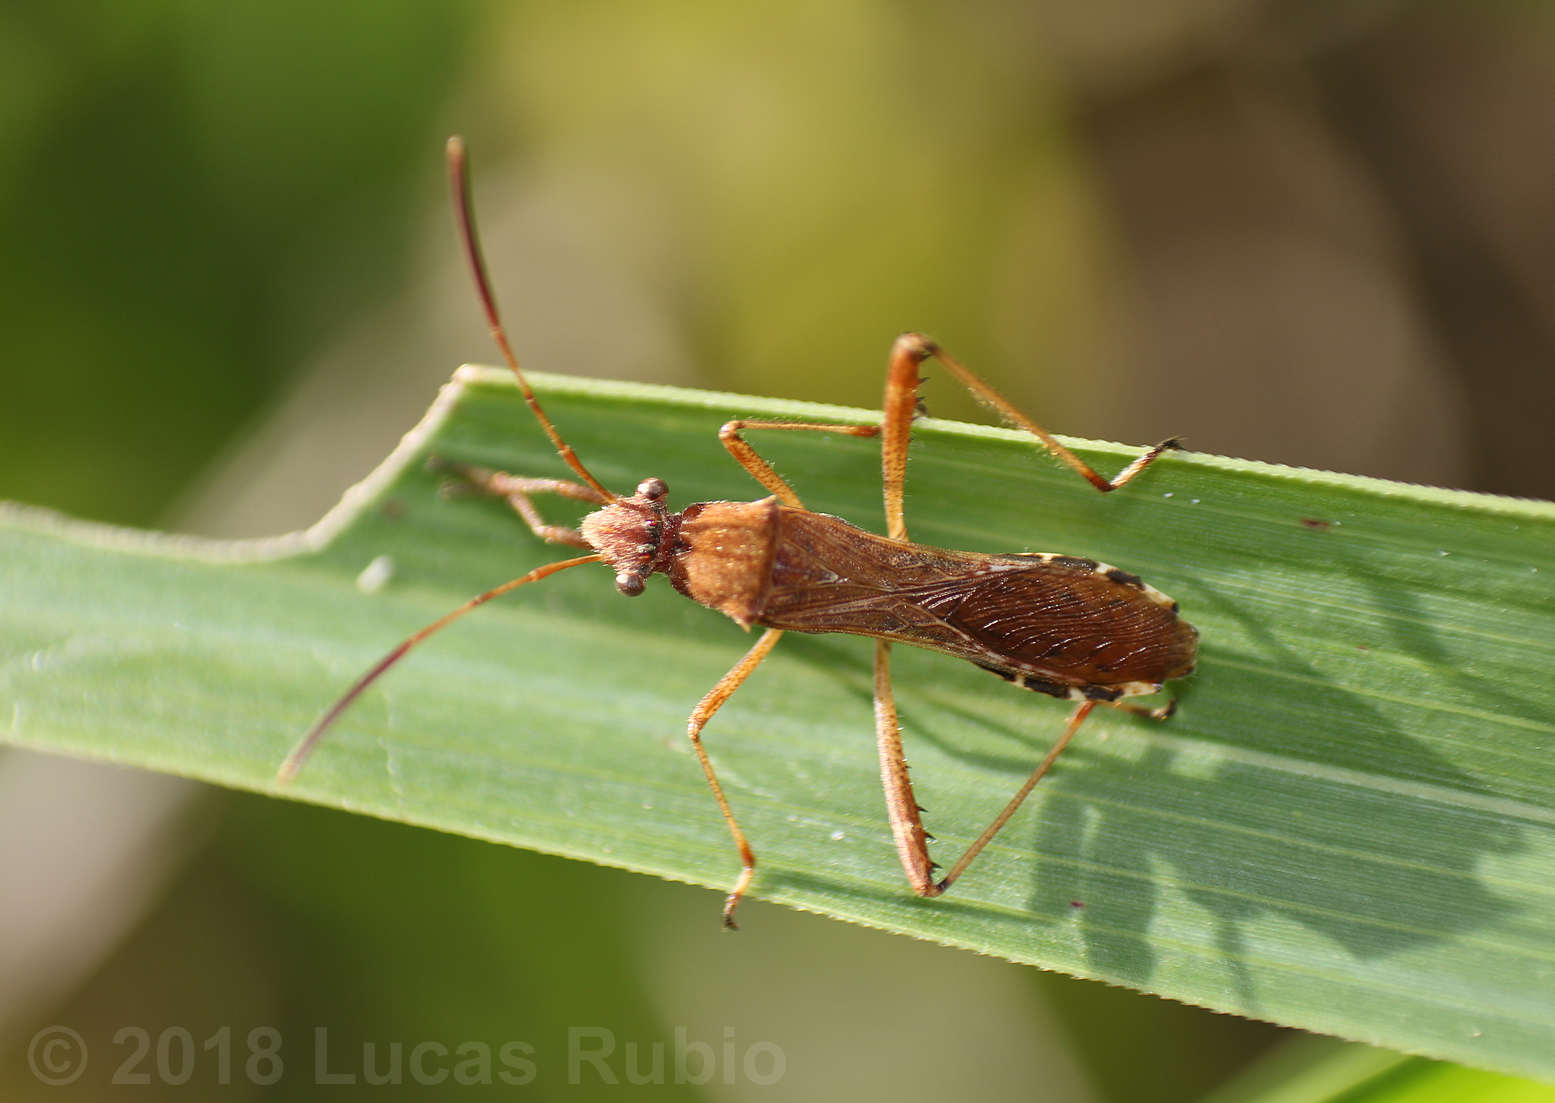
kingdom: Animalia
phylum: Arthropoda
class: Insecta
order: Hemiptera
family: Alydidae
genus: Neomegalotomus
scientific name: Neomegalotomus parvus
